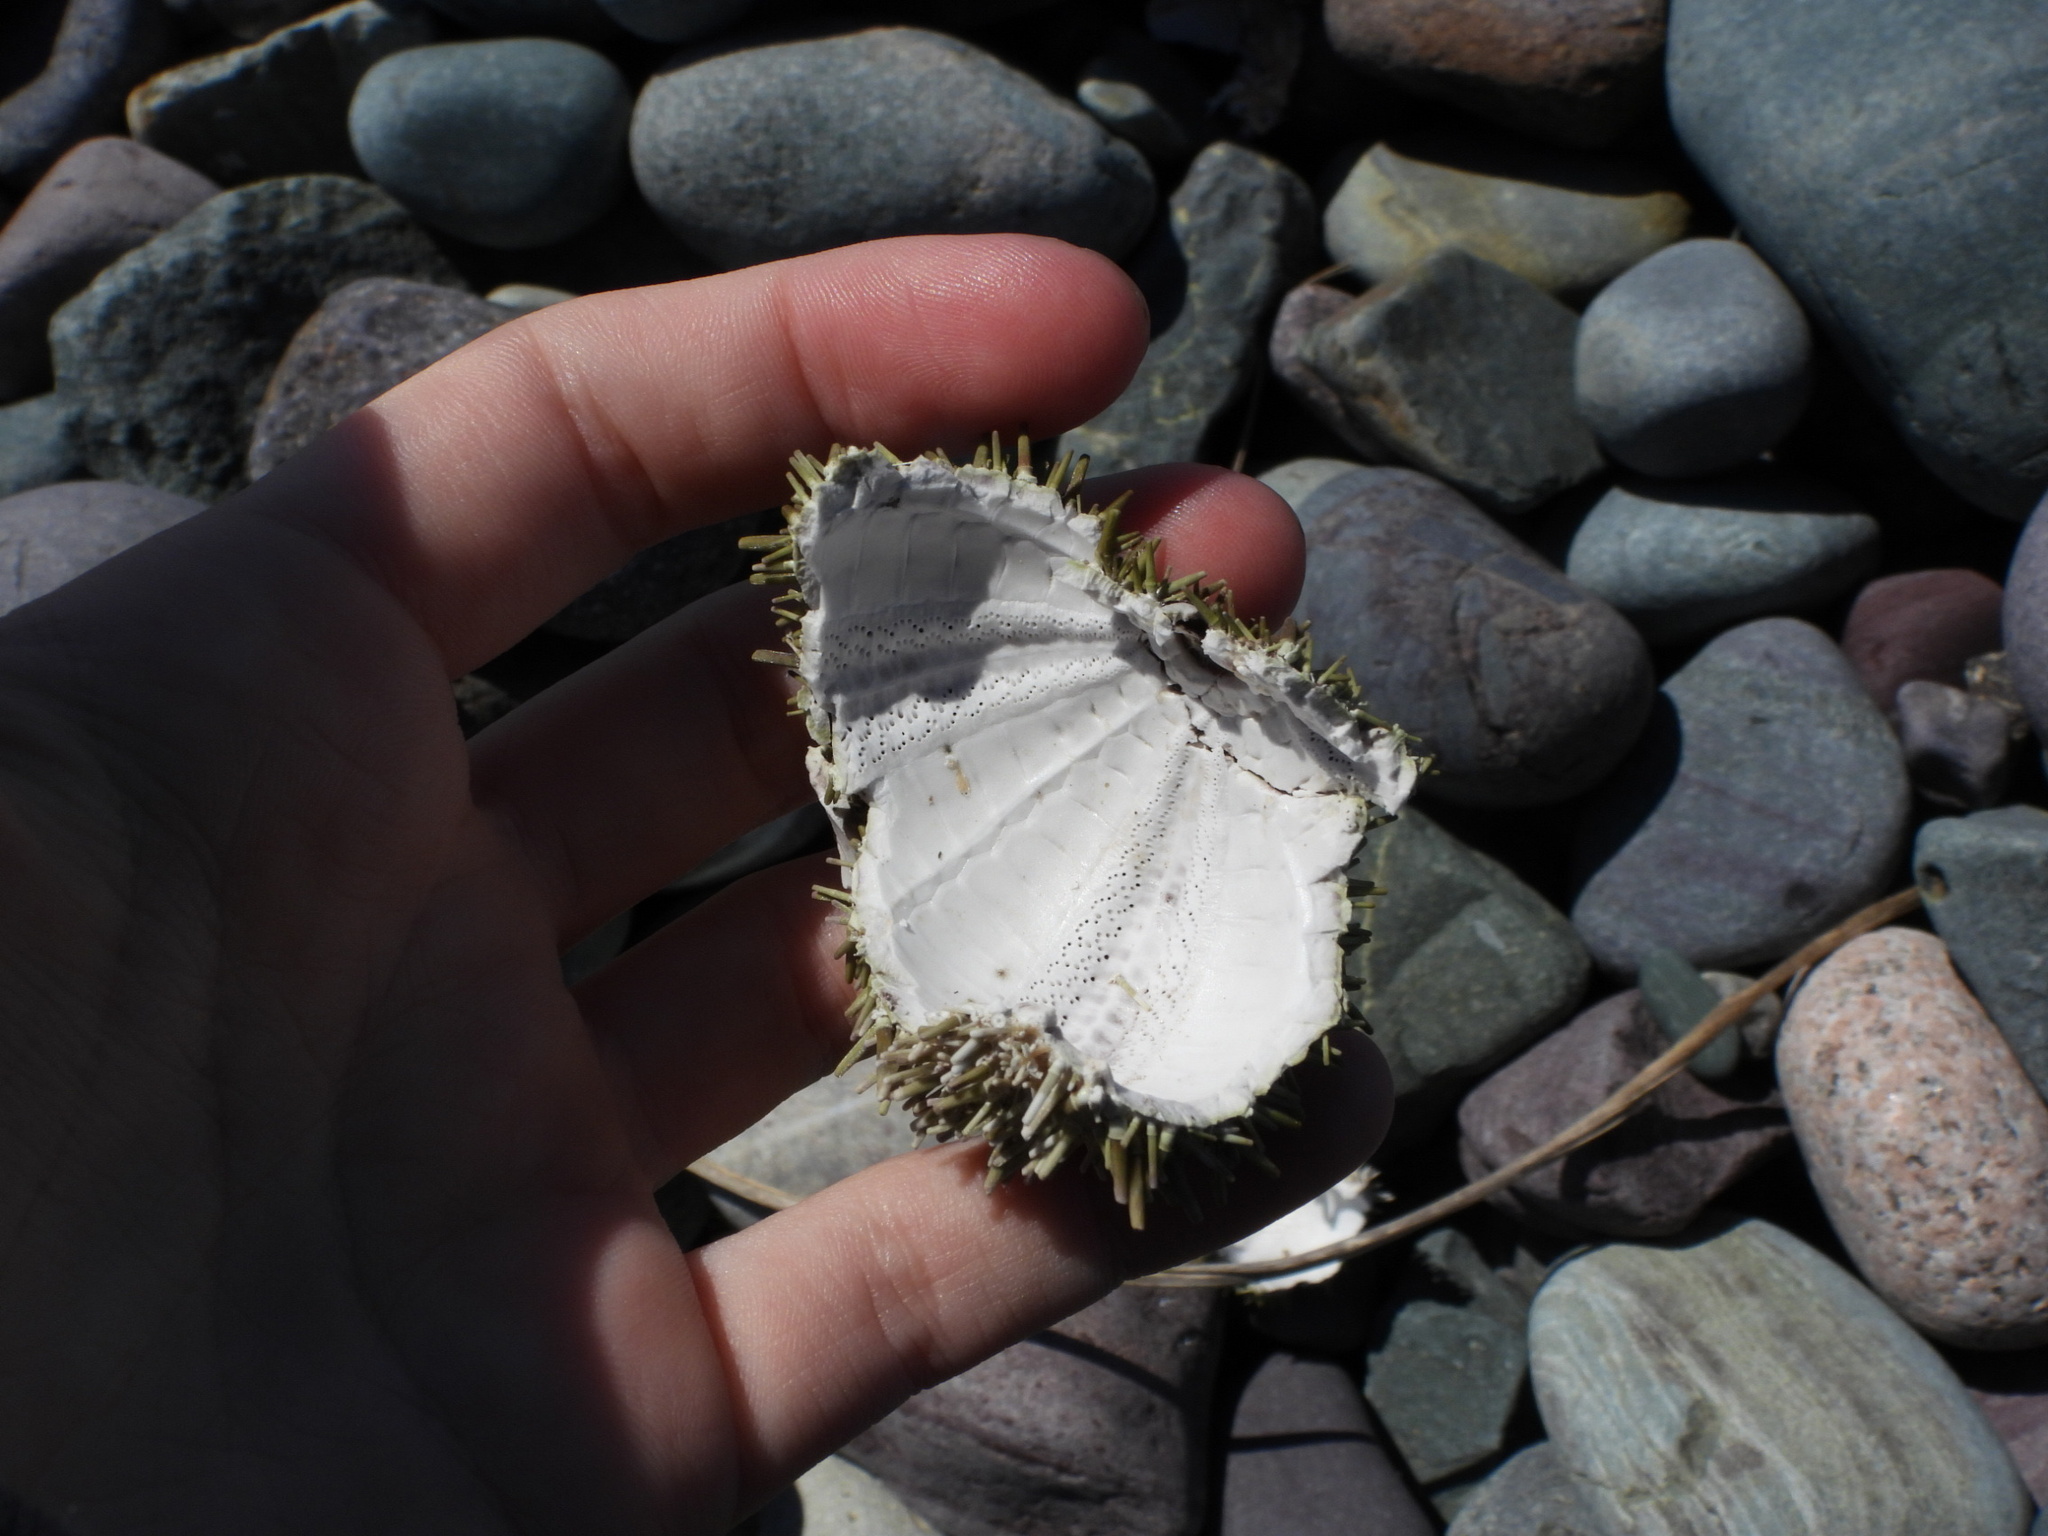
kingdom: Animalia
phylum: Echinodermata
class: Echinoidea
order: Camarodonta
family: Strongylocentrotidae
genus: Strongylocentrotus
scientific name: Strongylocentrotus droebachiensis
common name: Northern sea urchin
